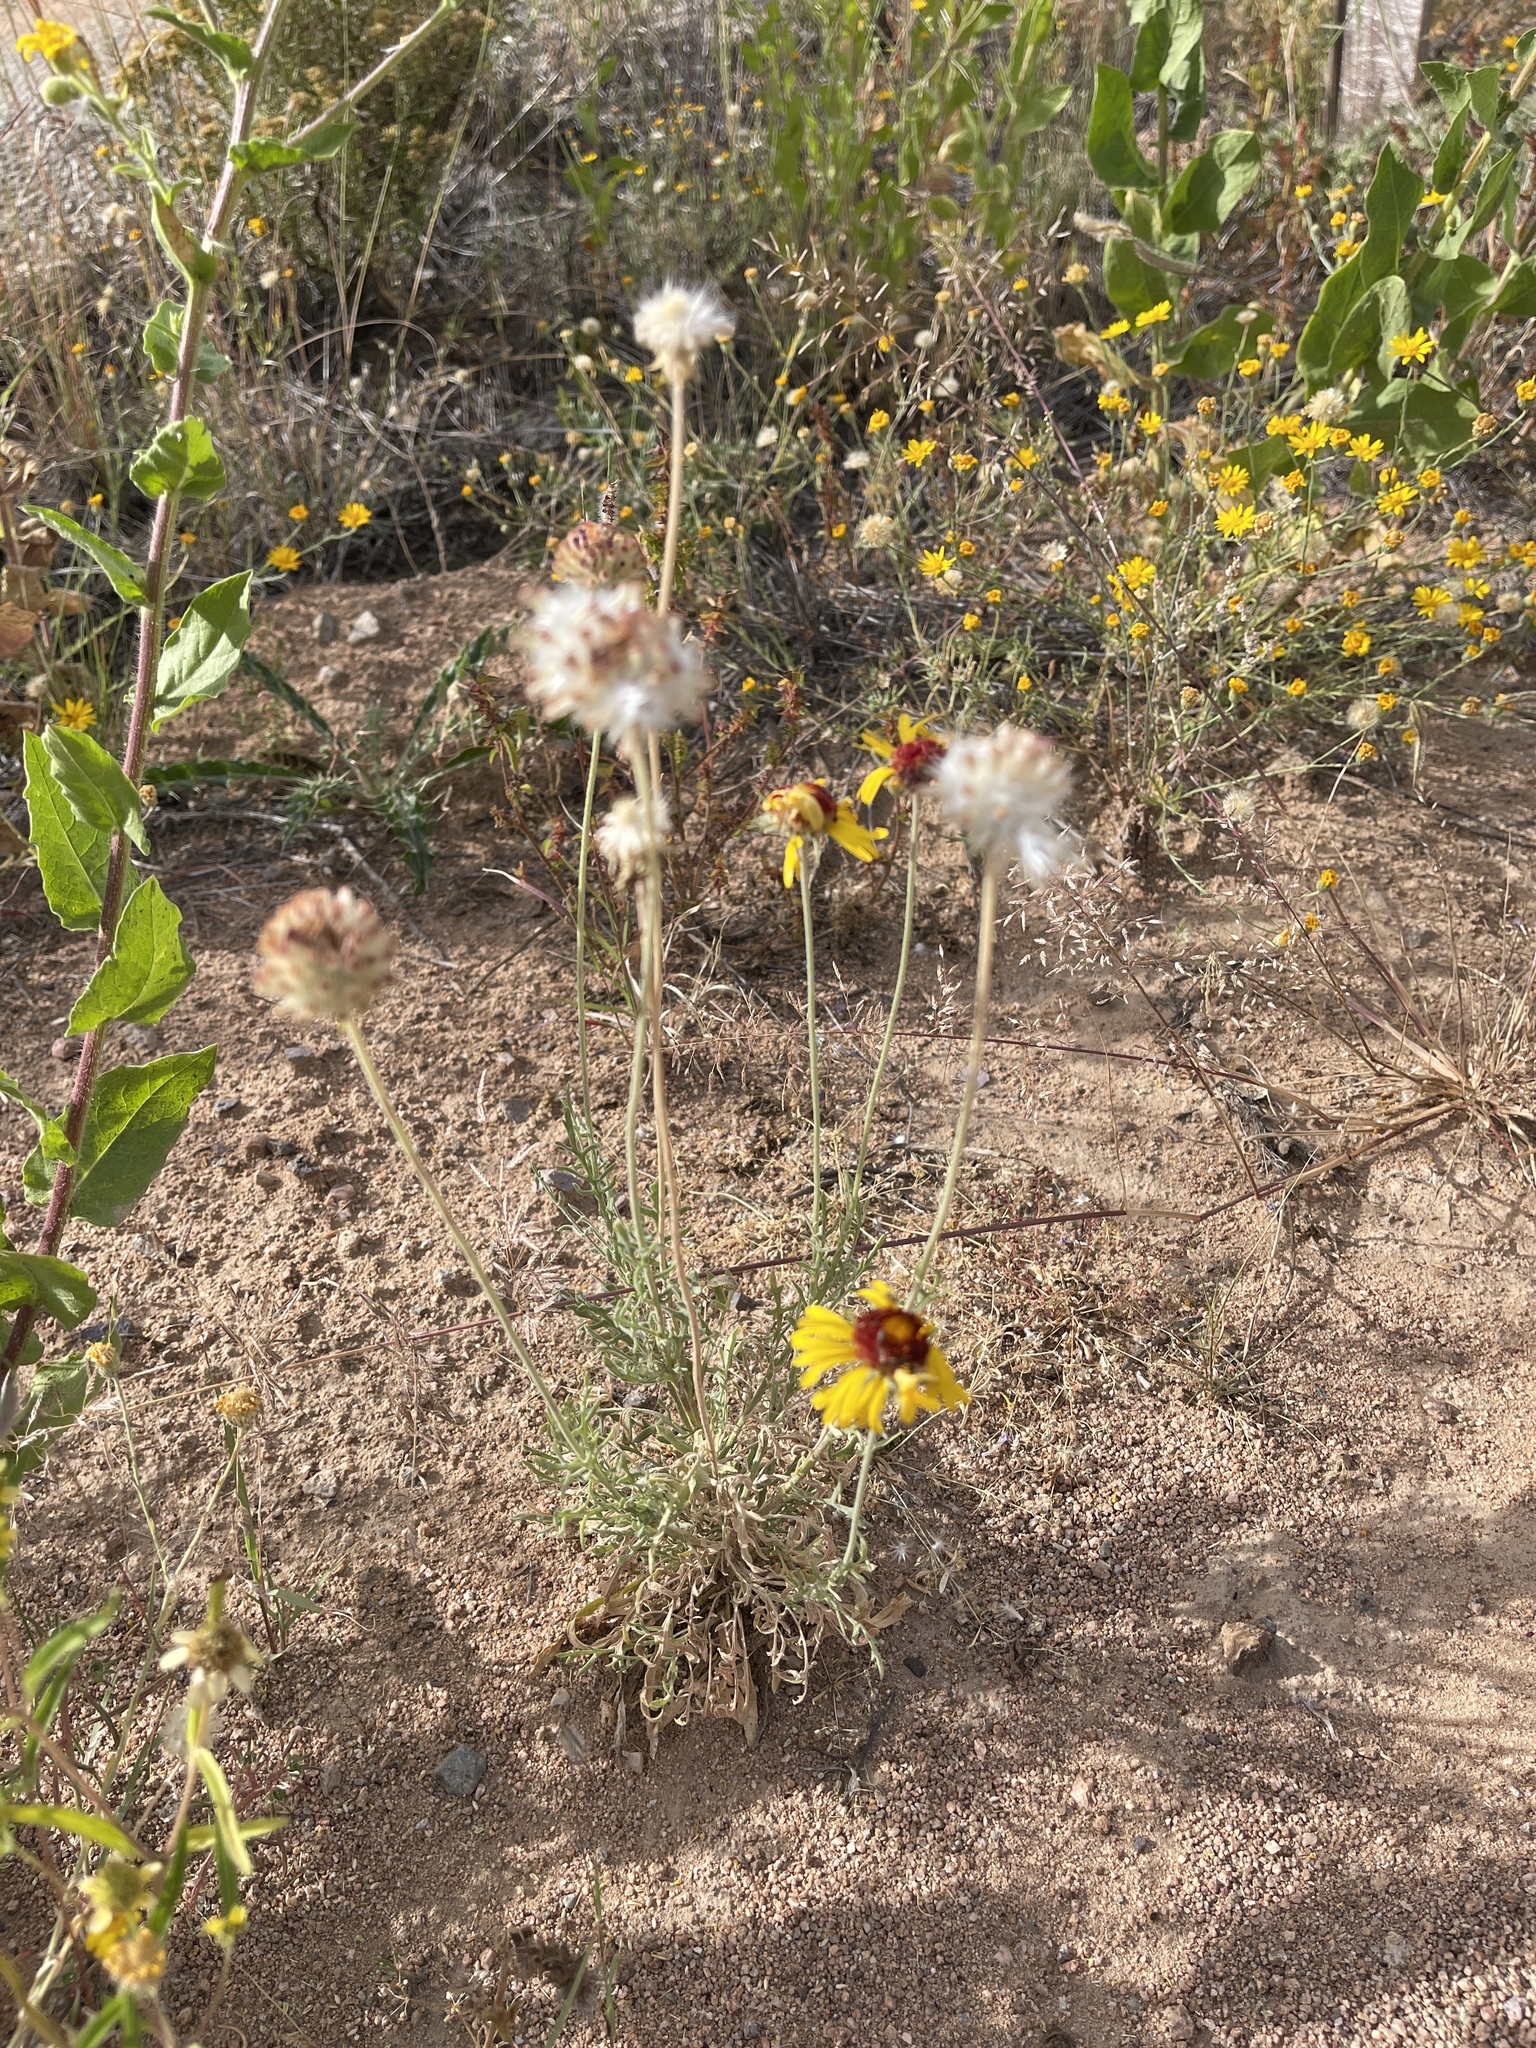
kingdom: Plantae
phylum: Tracheophyta
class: Magnoliopsida
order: Asterales
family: Asteraceae
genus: Gaillardia
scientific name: Gaillardia pinnatifida
